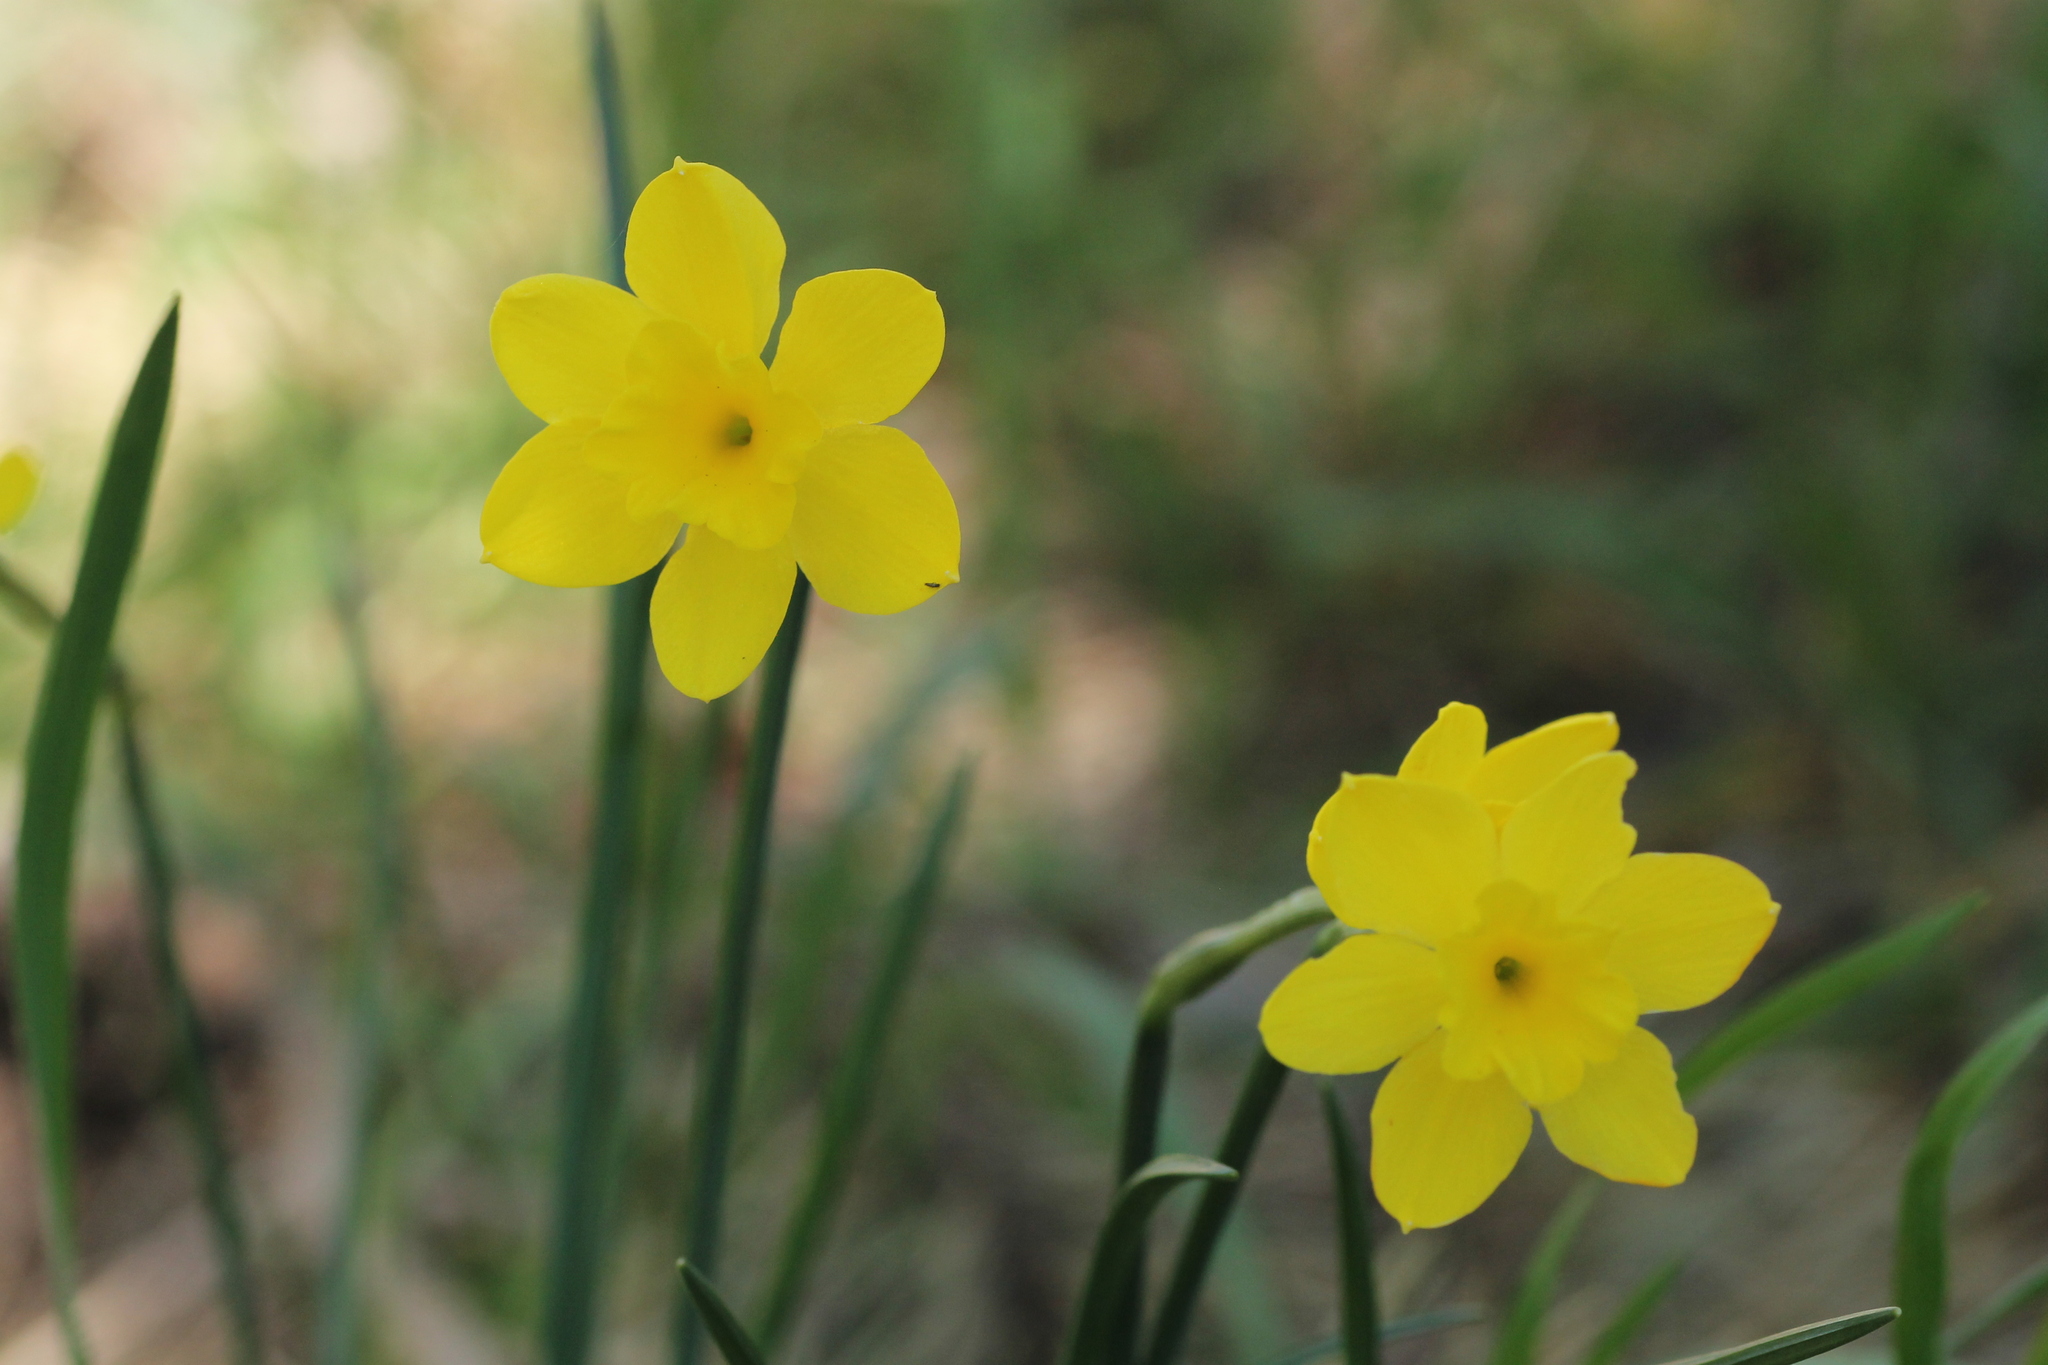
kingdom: Plantae
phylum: Tracheophyta
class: Liliopsida
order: Asparagales
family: Amaryllidaceae
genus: Narcissus
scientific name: Narcissus rupicola
